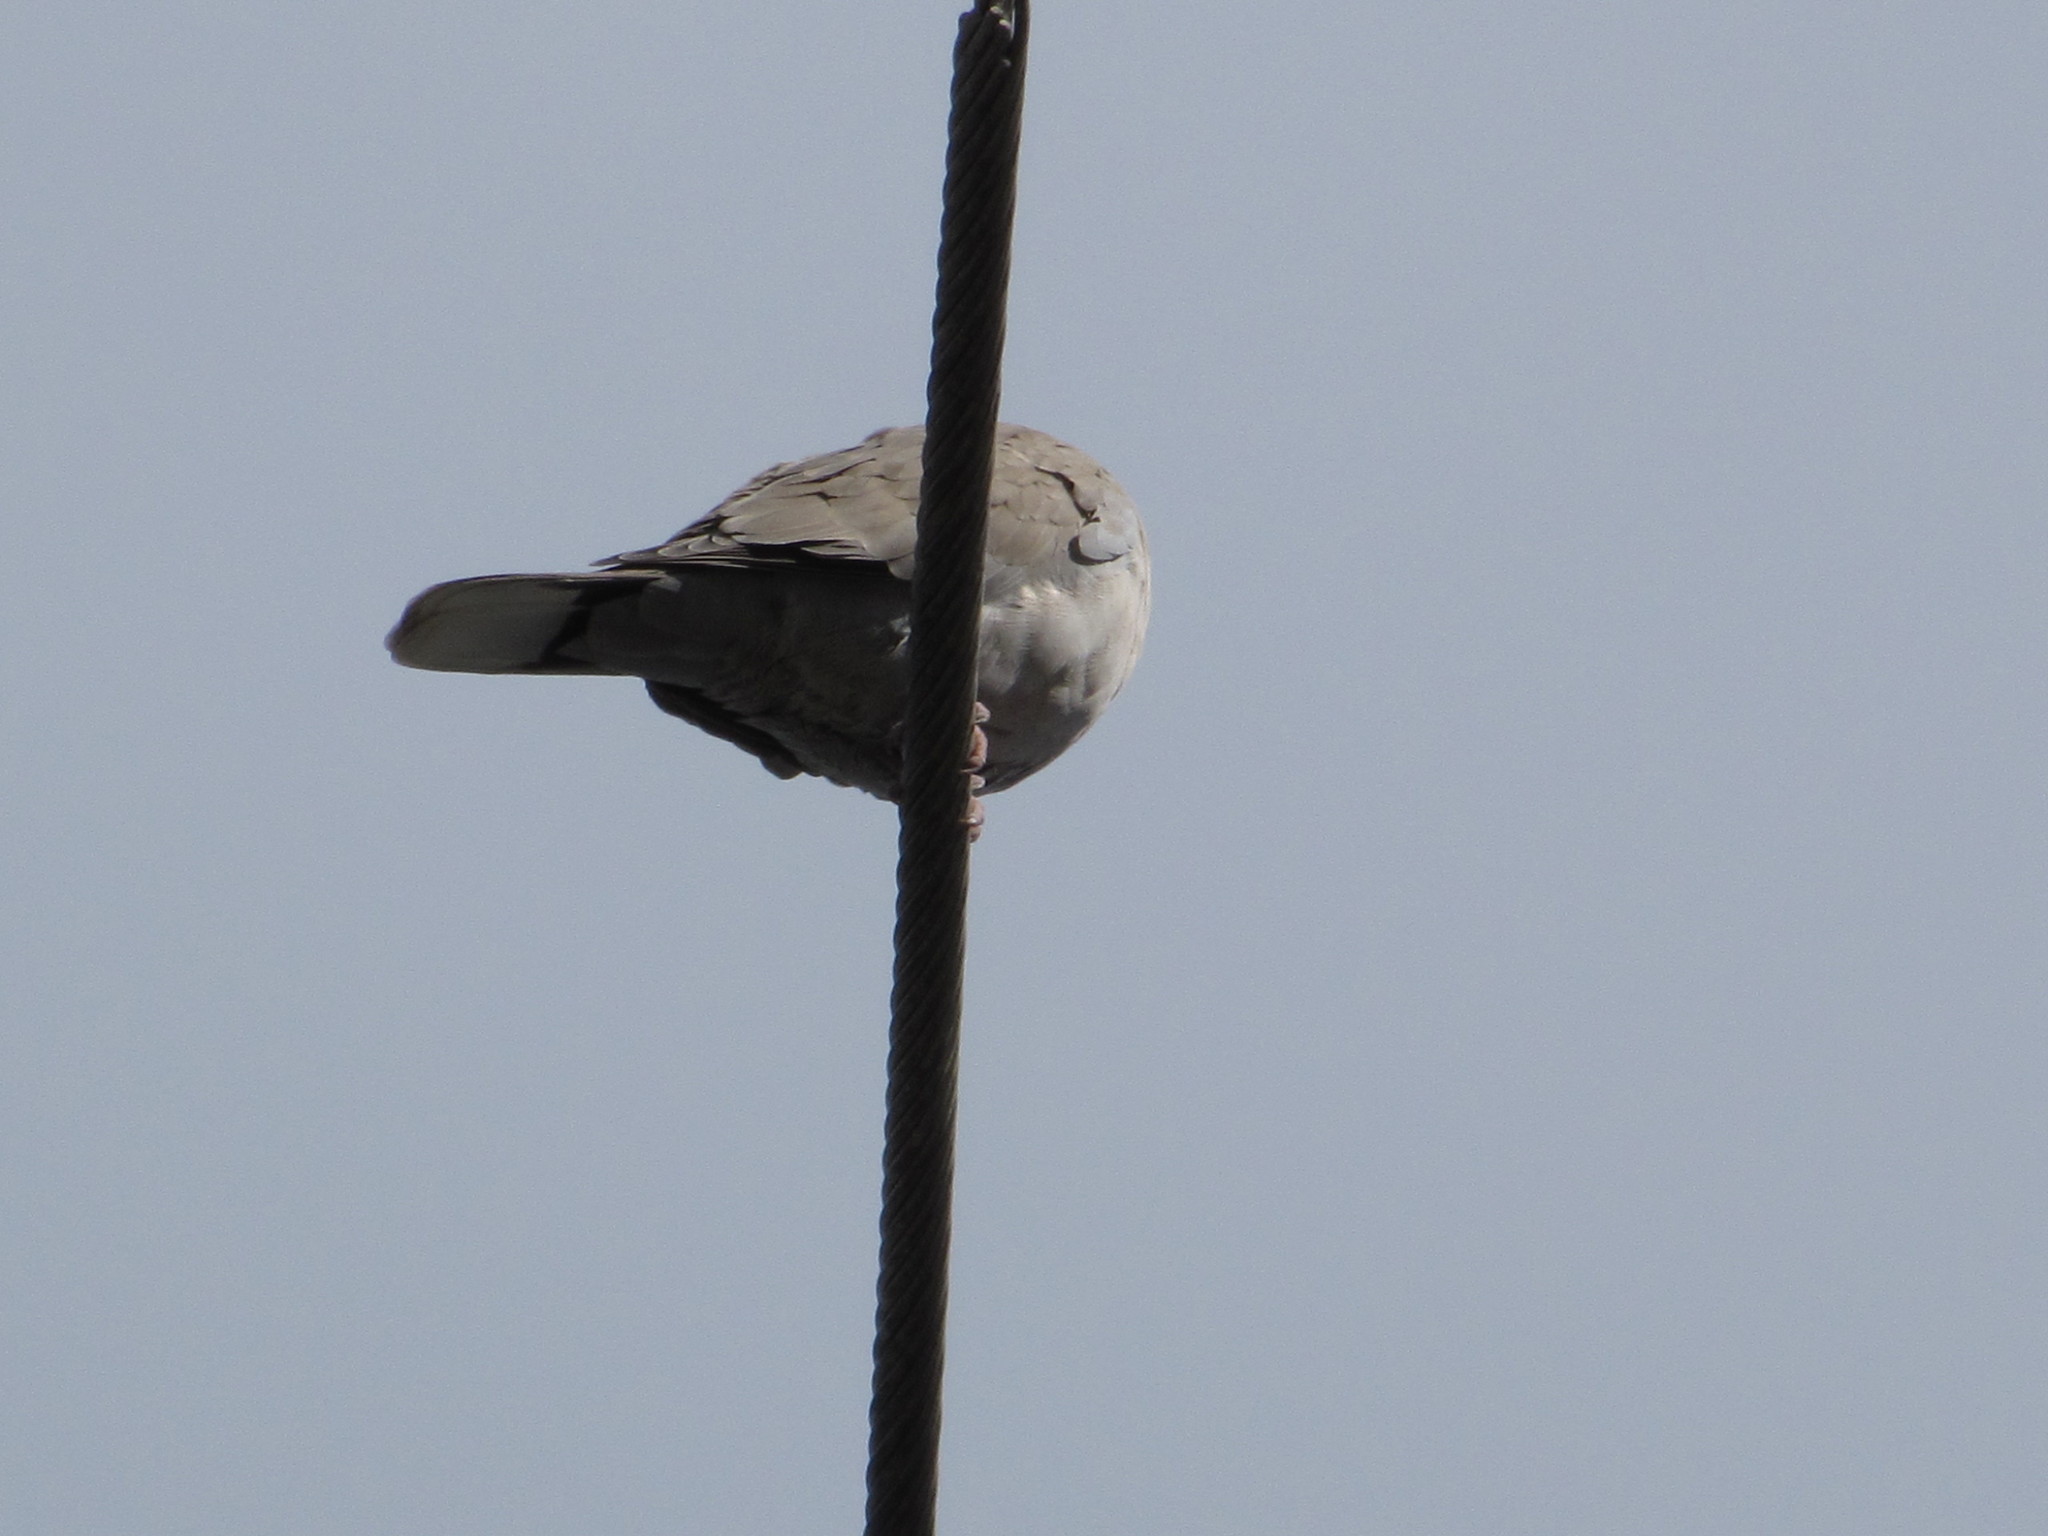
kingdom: Animalia
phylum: Chordata
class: Aves
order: Columbiformes
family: Columbidae
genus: Streptopelia
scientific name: Streptopelia decaocto
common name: Eurasian collared dove
